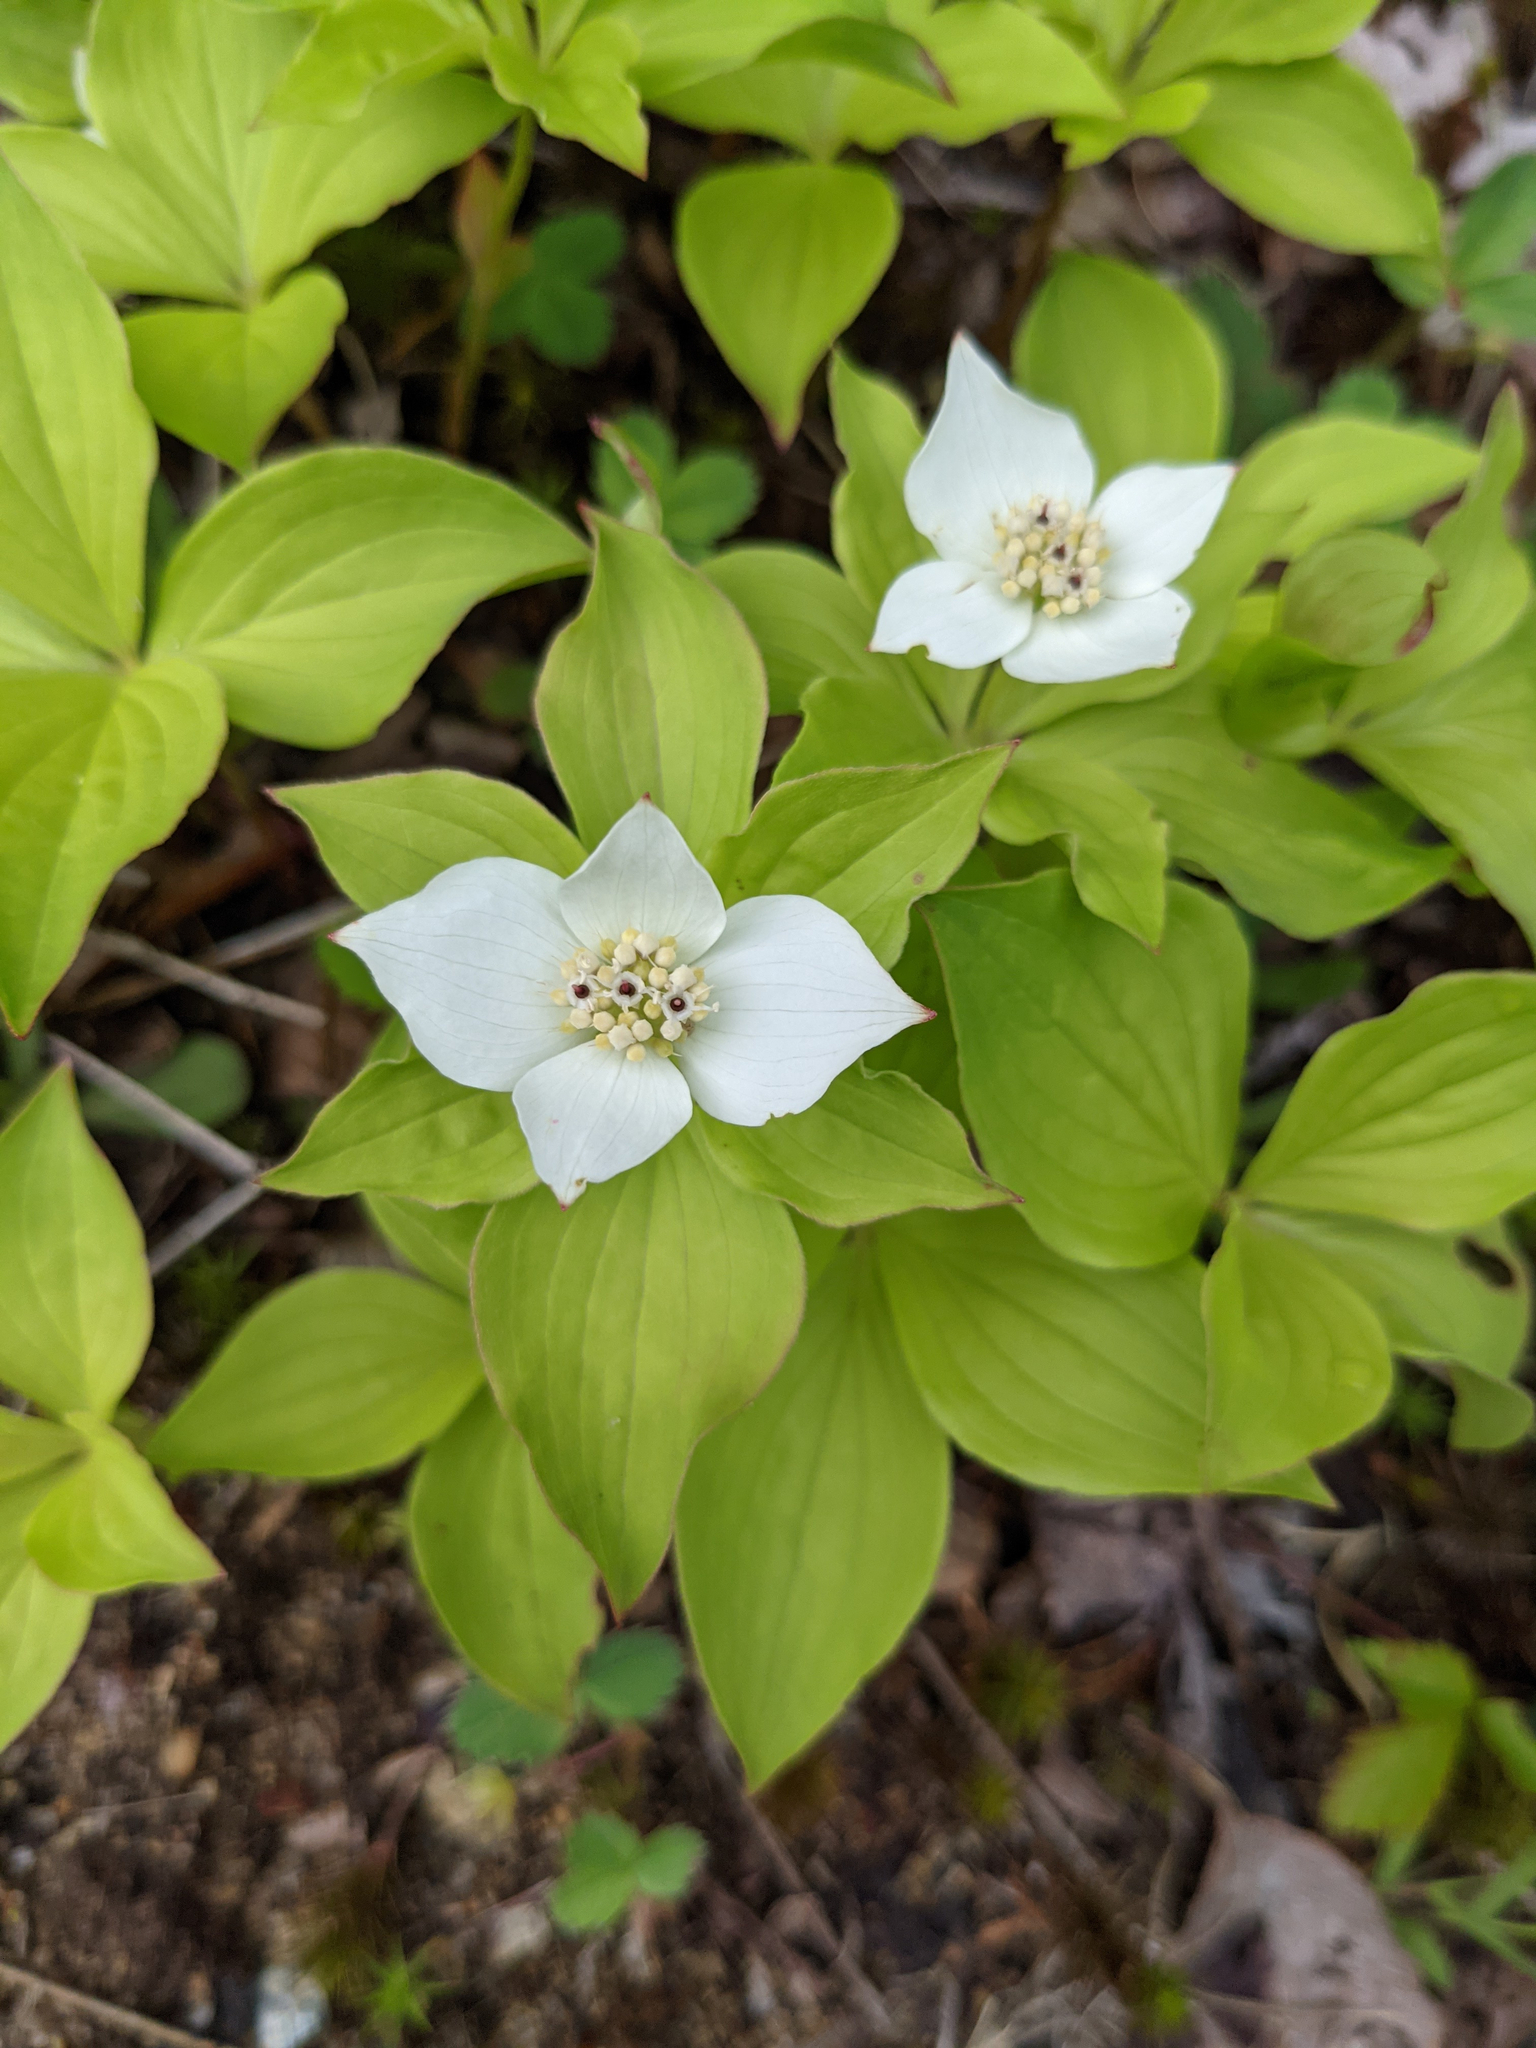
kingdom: Plantae
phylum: Tracheophyta
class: Magnoliopsida
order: Cornales
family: Cornaceae
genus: Cornus
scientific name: Cornus canadensis
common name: Creeping dogwood
